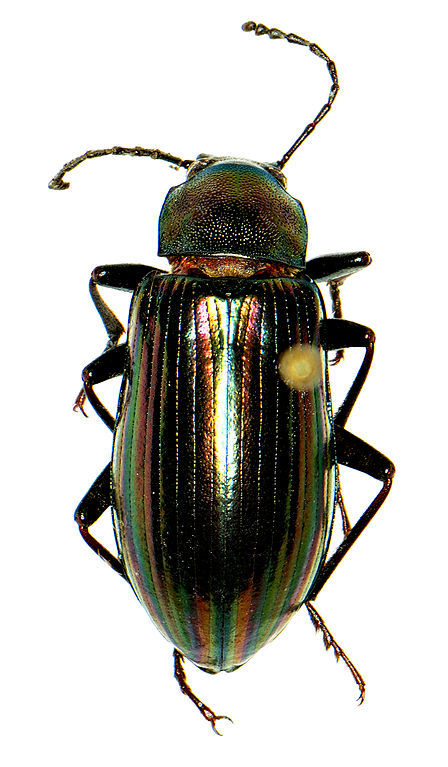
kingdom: Animalia
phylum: Arthropoda
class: Insecta
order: Coleoptera
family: Tenebrionidae
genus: Tarpela
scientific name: Tarpela micans
